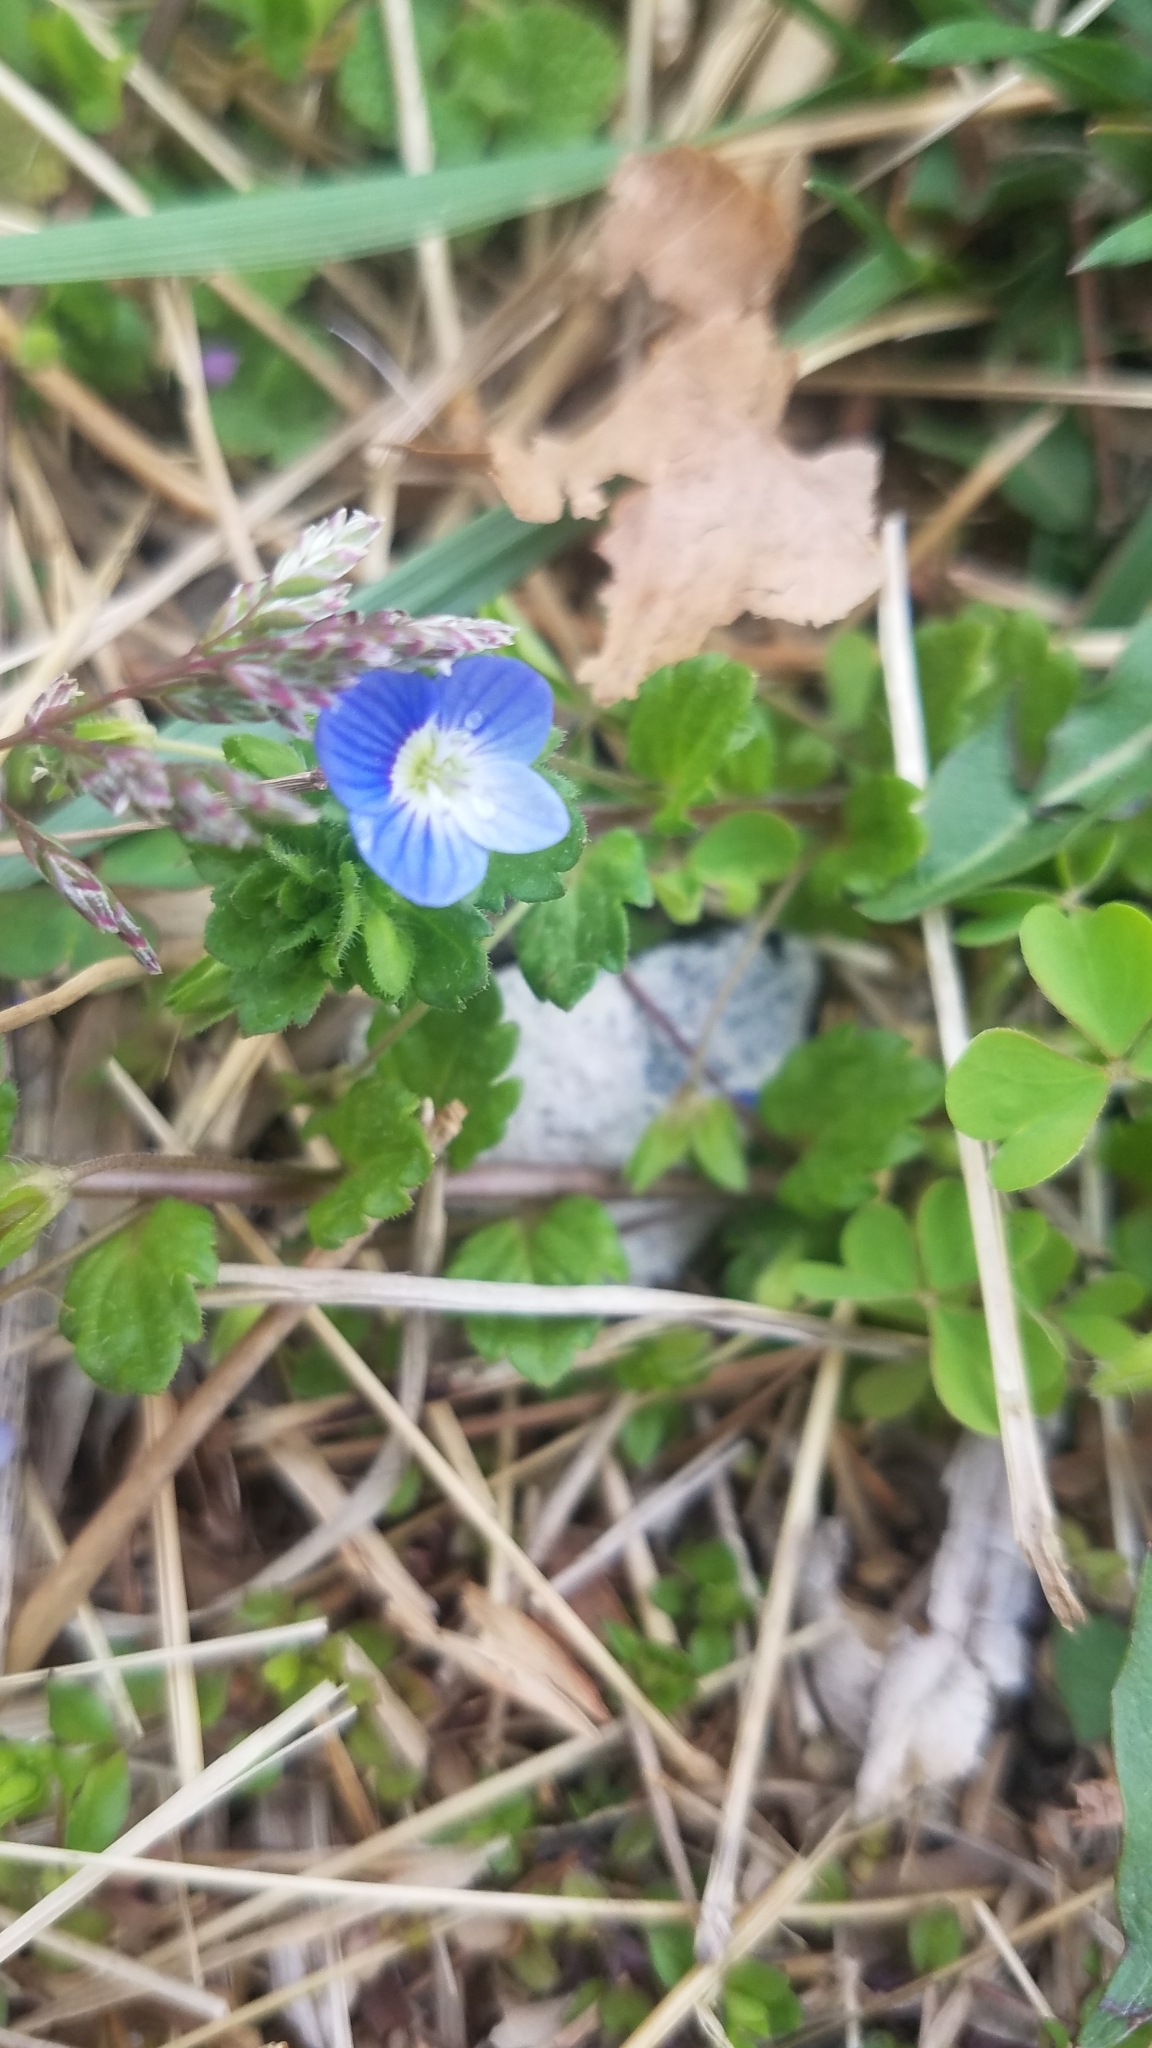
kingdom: Plantae
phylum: Tracheophyta
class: Magnoliopsida
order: Lamiales
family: Plantaginaceae
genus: Veronica
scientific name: Veronica persica
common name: Common field-speedwell
